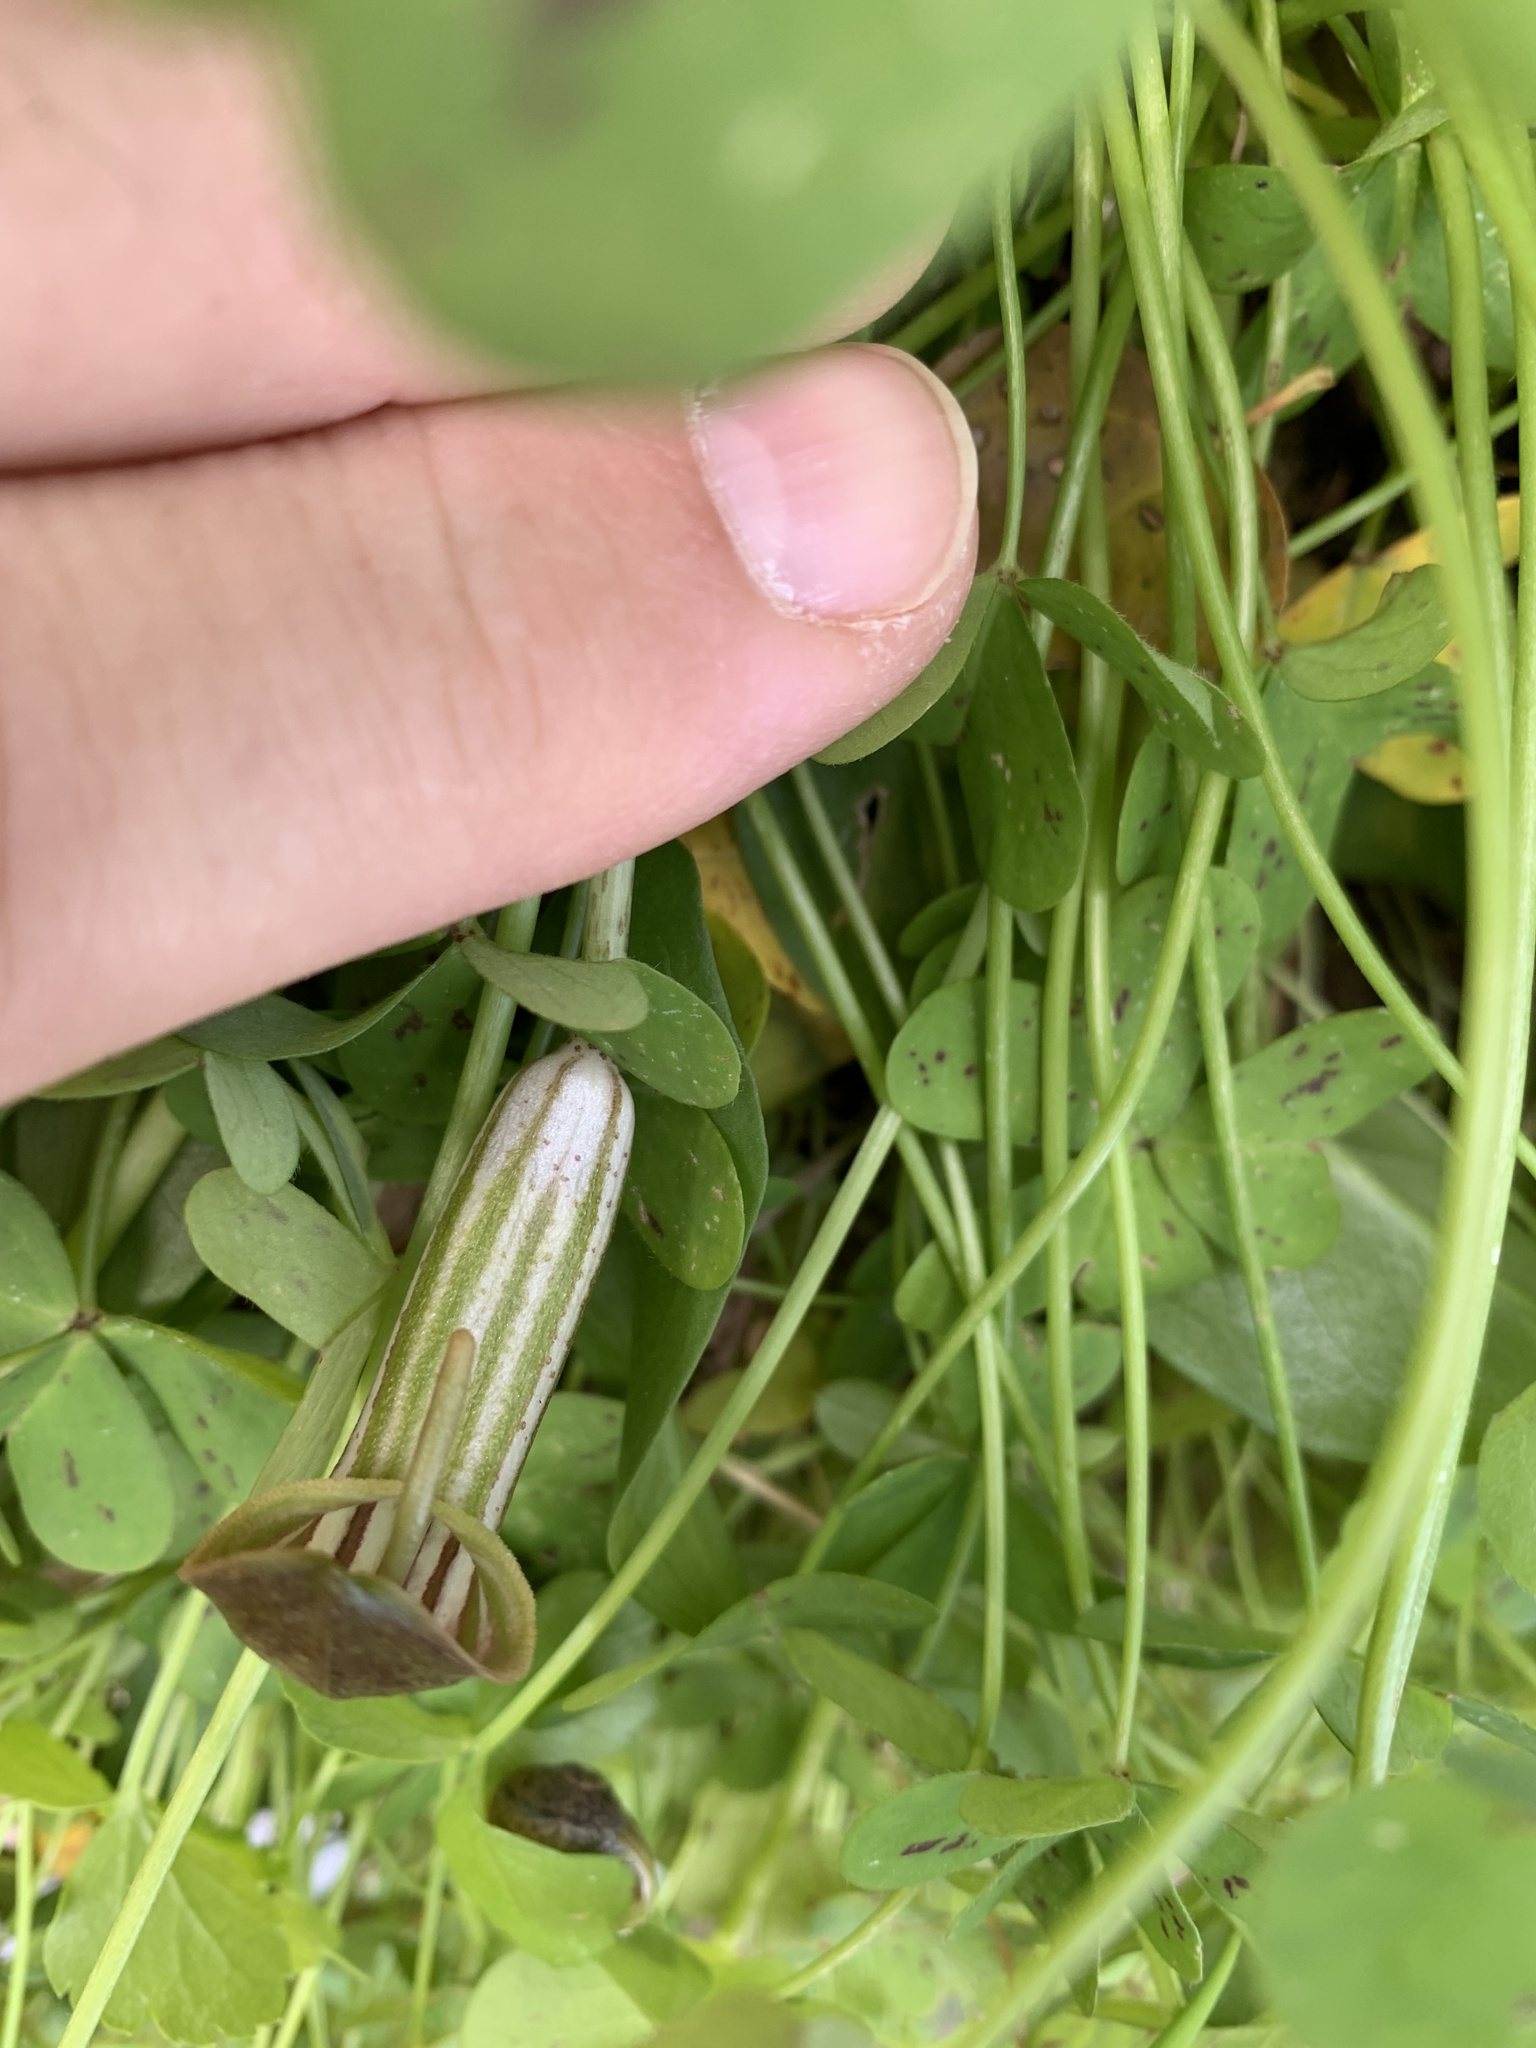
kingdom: Plantae
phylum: Tracheophyta
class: Liliopsida
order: Alismatales
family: Araceae
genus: Arisarum
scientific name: Arisarum vulgare
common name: Common arisarum
